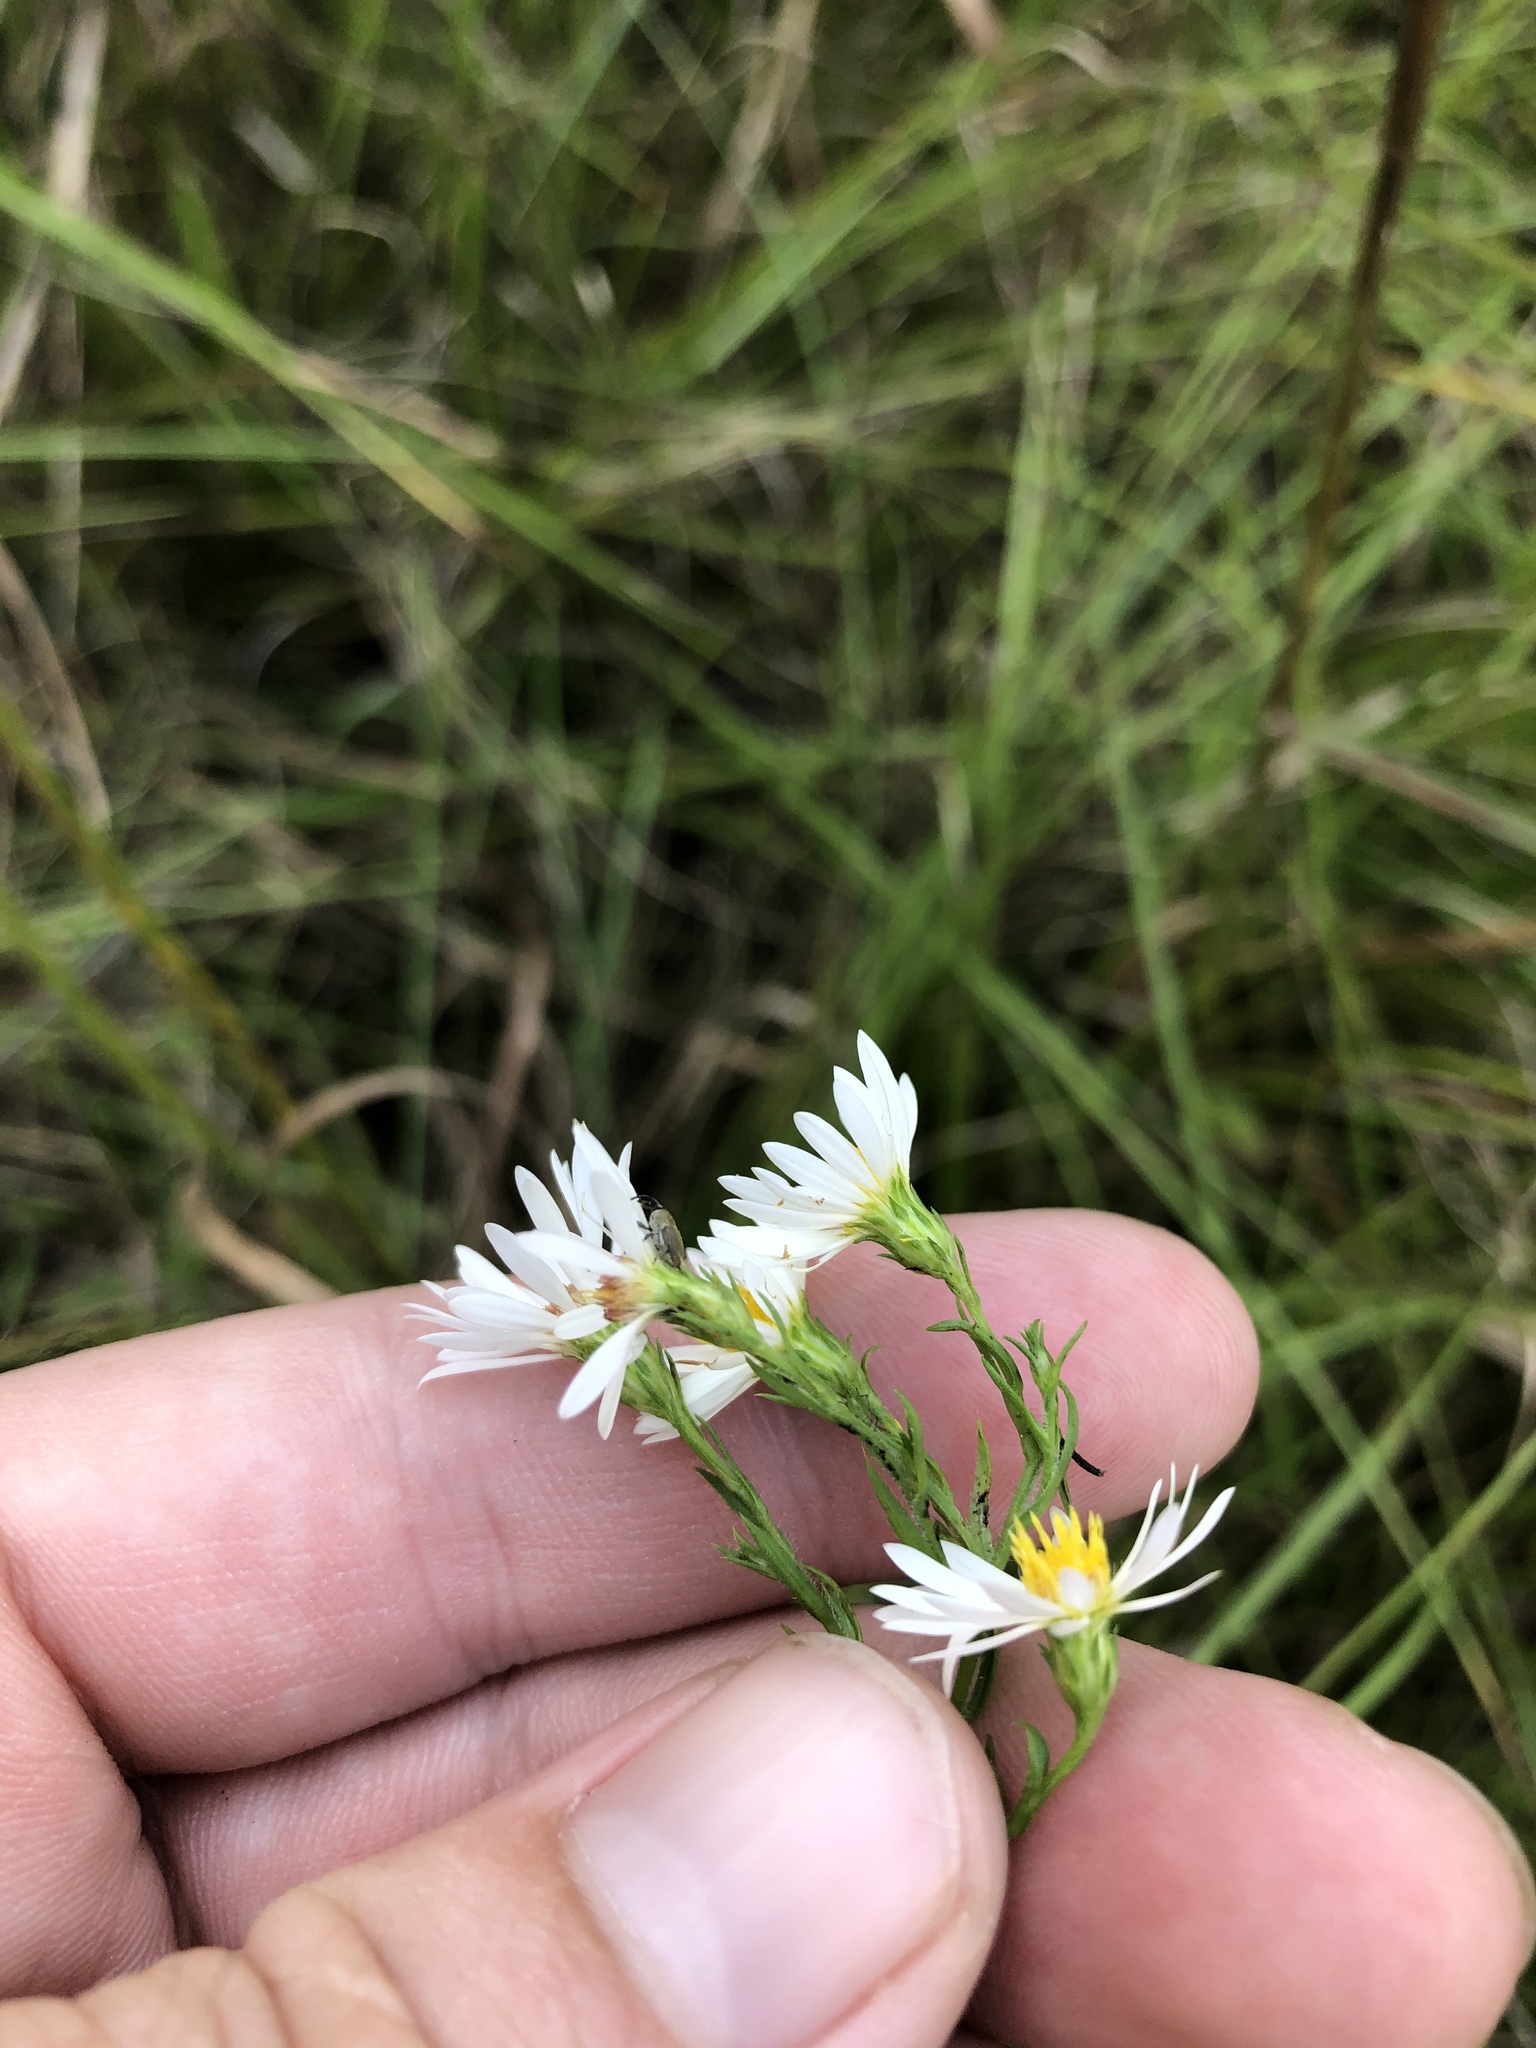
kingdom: Plantae
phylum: Tracheophyta
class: Magnoliopsida
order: Asterales
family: Asteraceae
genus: Symphyotrichum
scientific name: Symphyotrichum pilosum
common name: Awl aster
